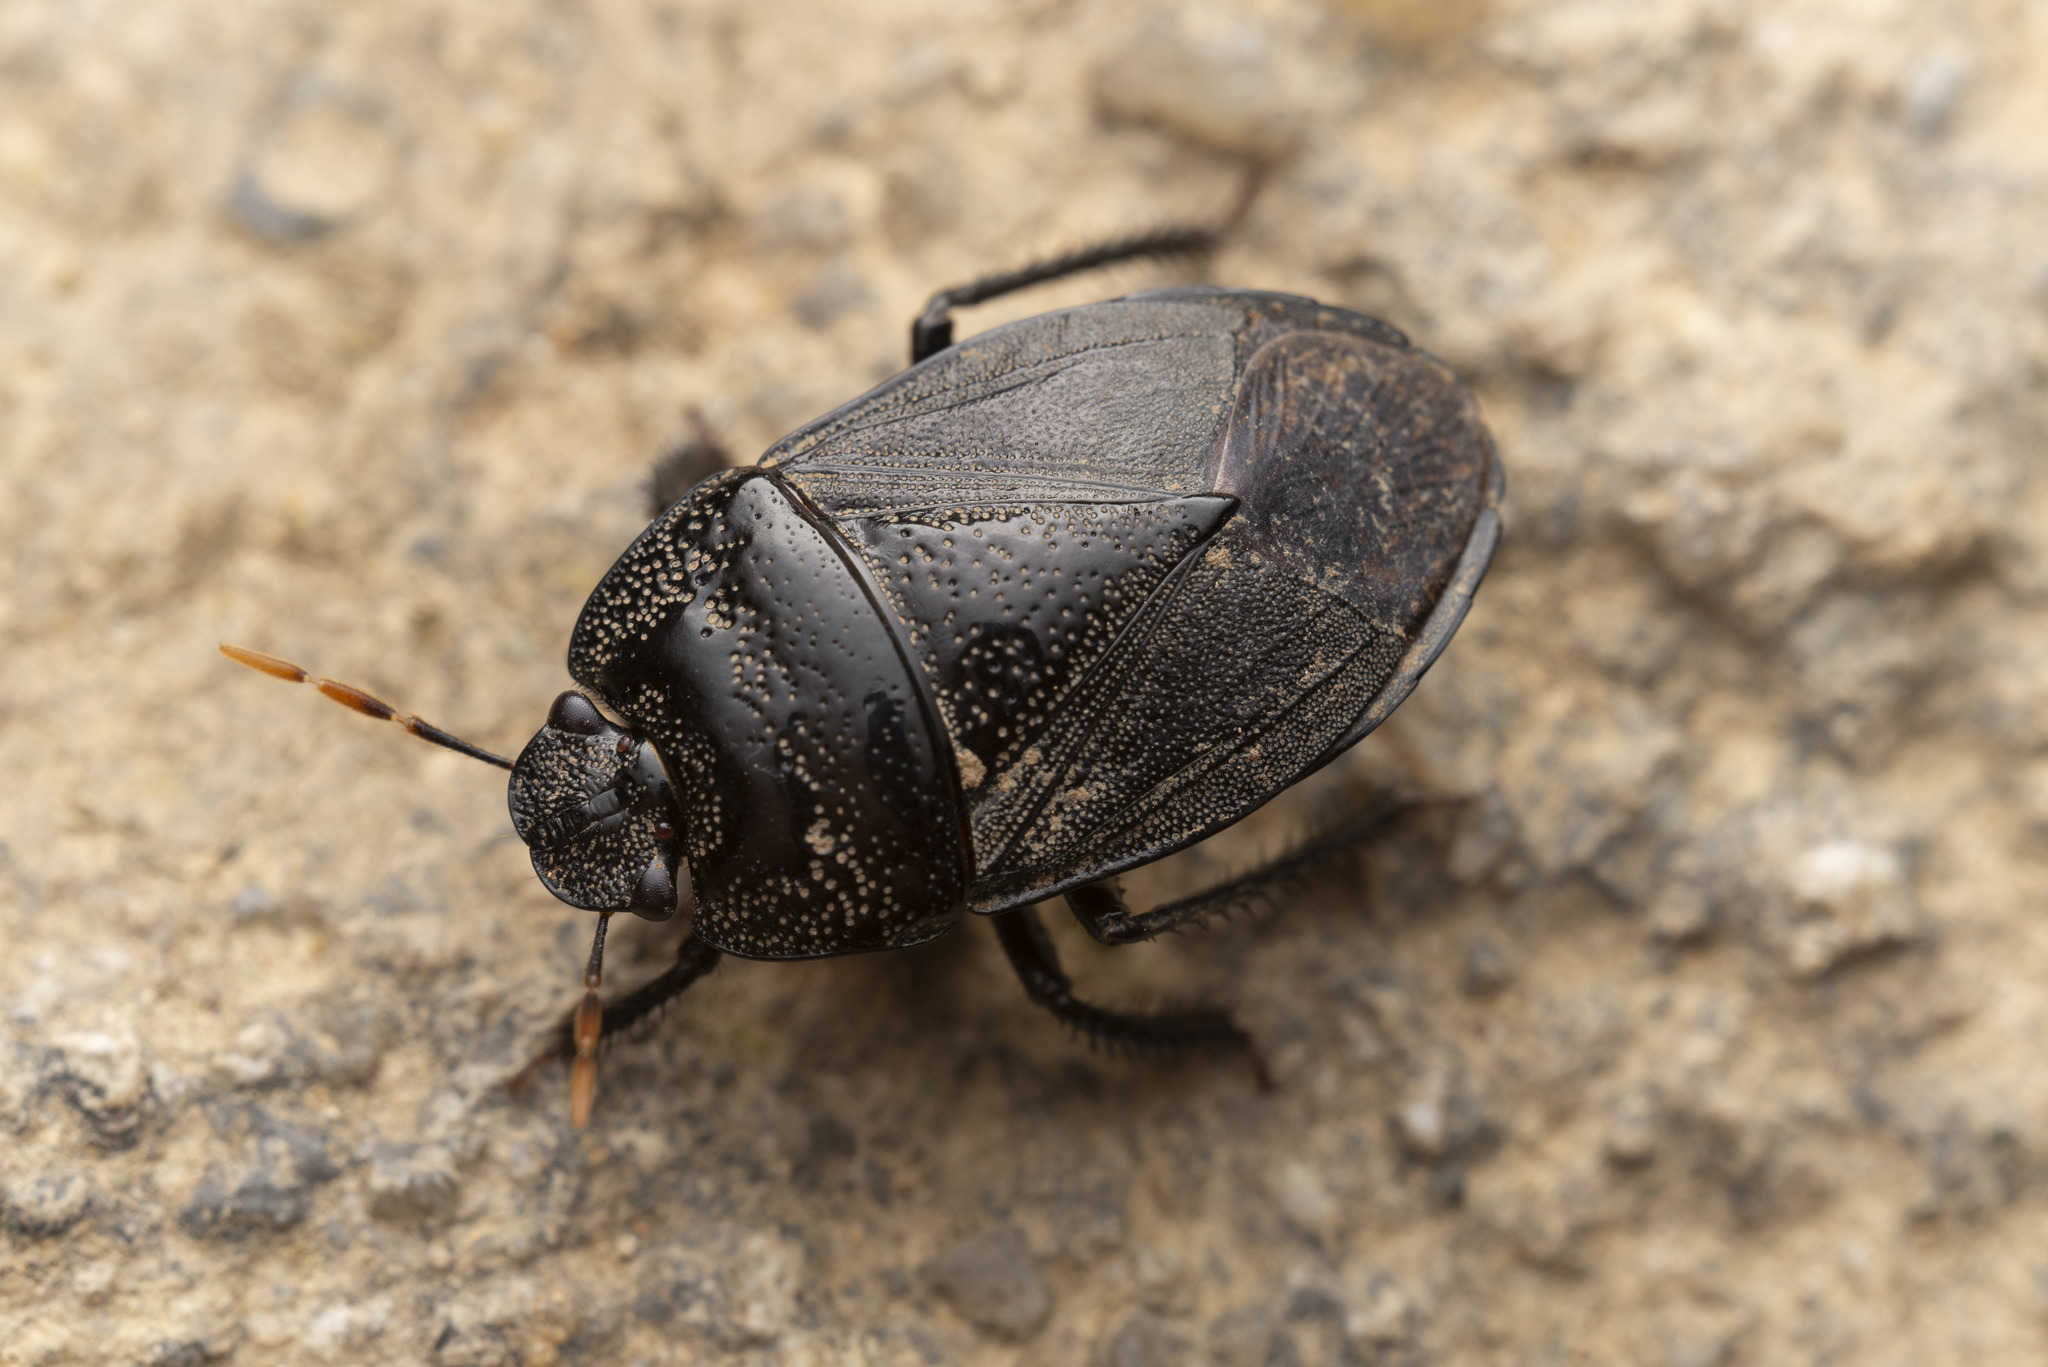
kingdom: Animalia
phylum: Arthropoda
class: Insecta
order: Hemiptera
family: Cydnidae
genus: Adrisa
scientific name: Adrisa magna
